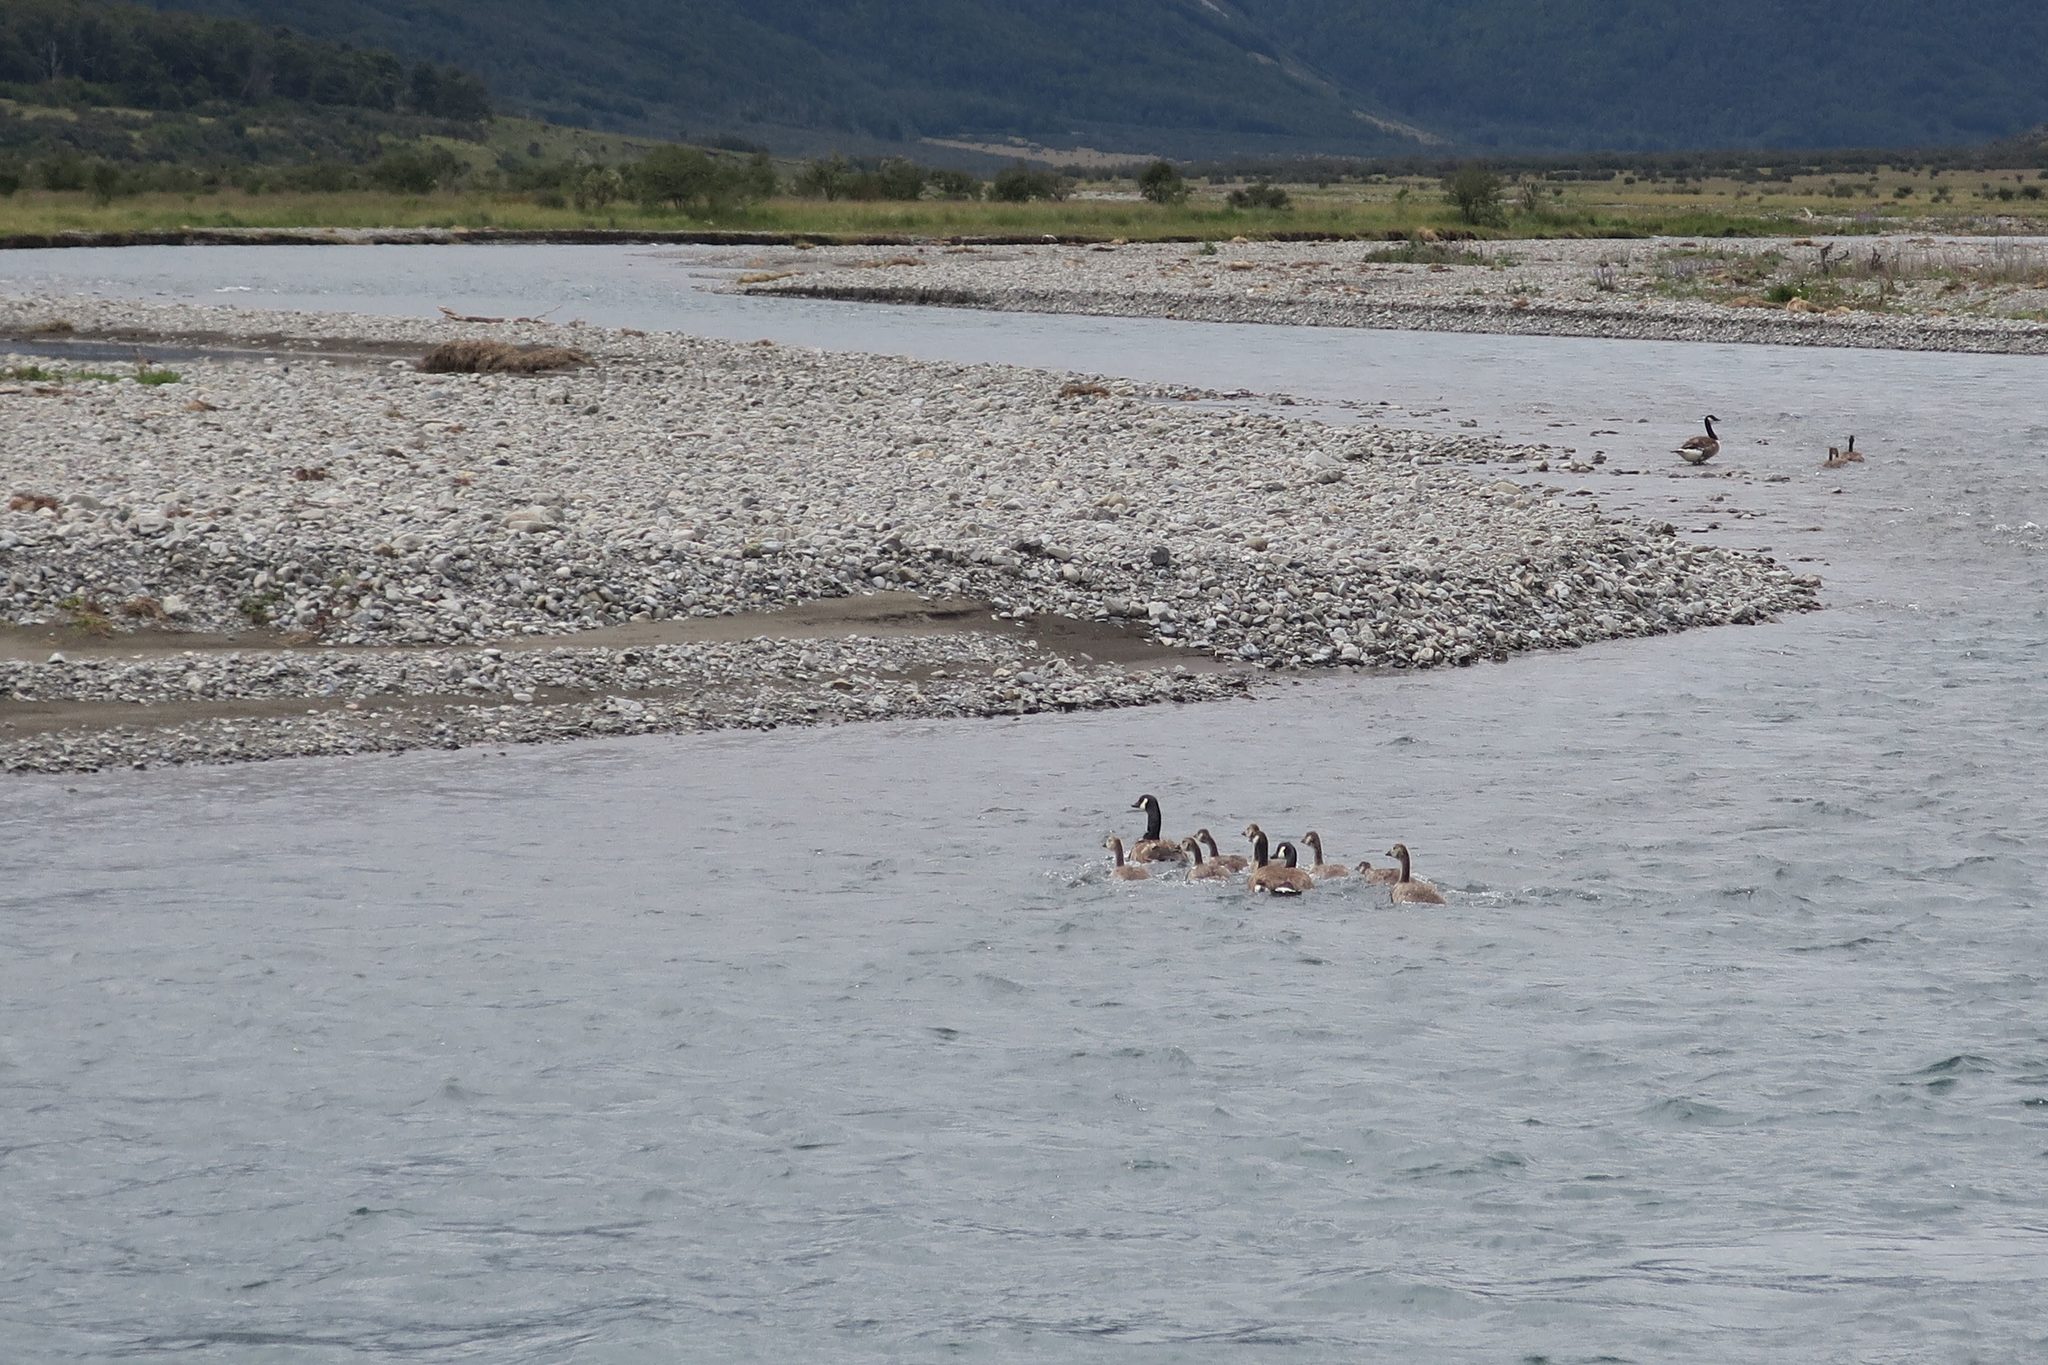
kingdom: Animalia
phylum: Chordata
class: Aves
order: Anseriformes
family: Anatidae
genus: Branta
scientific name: Branta canadensis
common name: Canada goose
